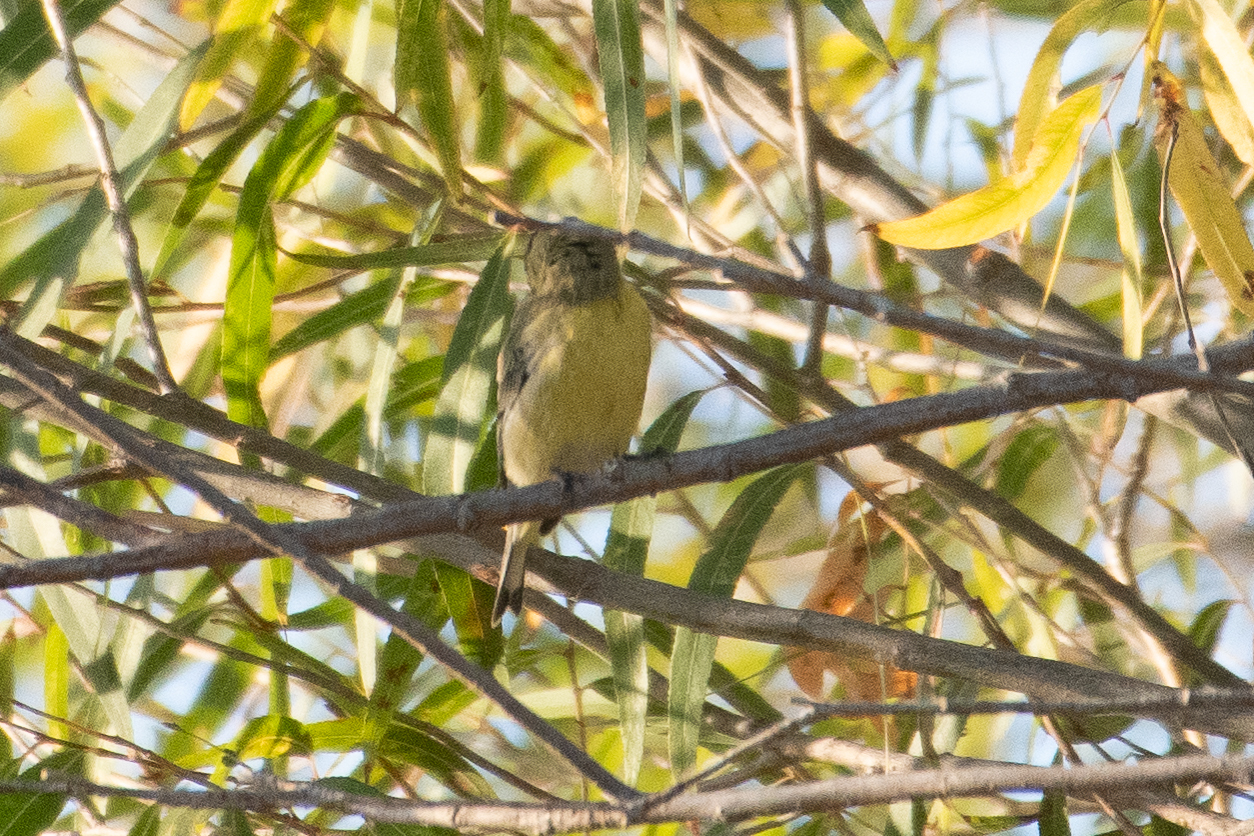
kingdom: Animalia
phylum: Chordata
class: Aves
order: Passeriformes
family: Fringillidae
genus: Spinus
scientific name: Spinus psaltria
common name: Lesser goldfinch
